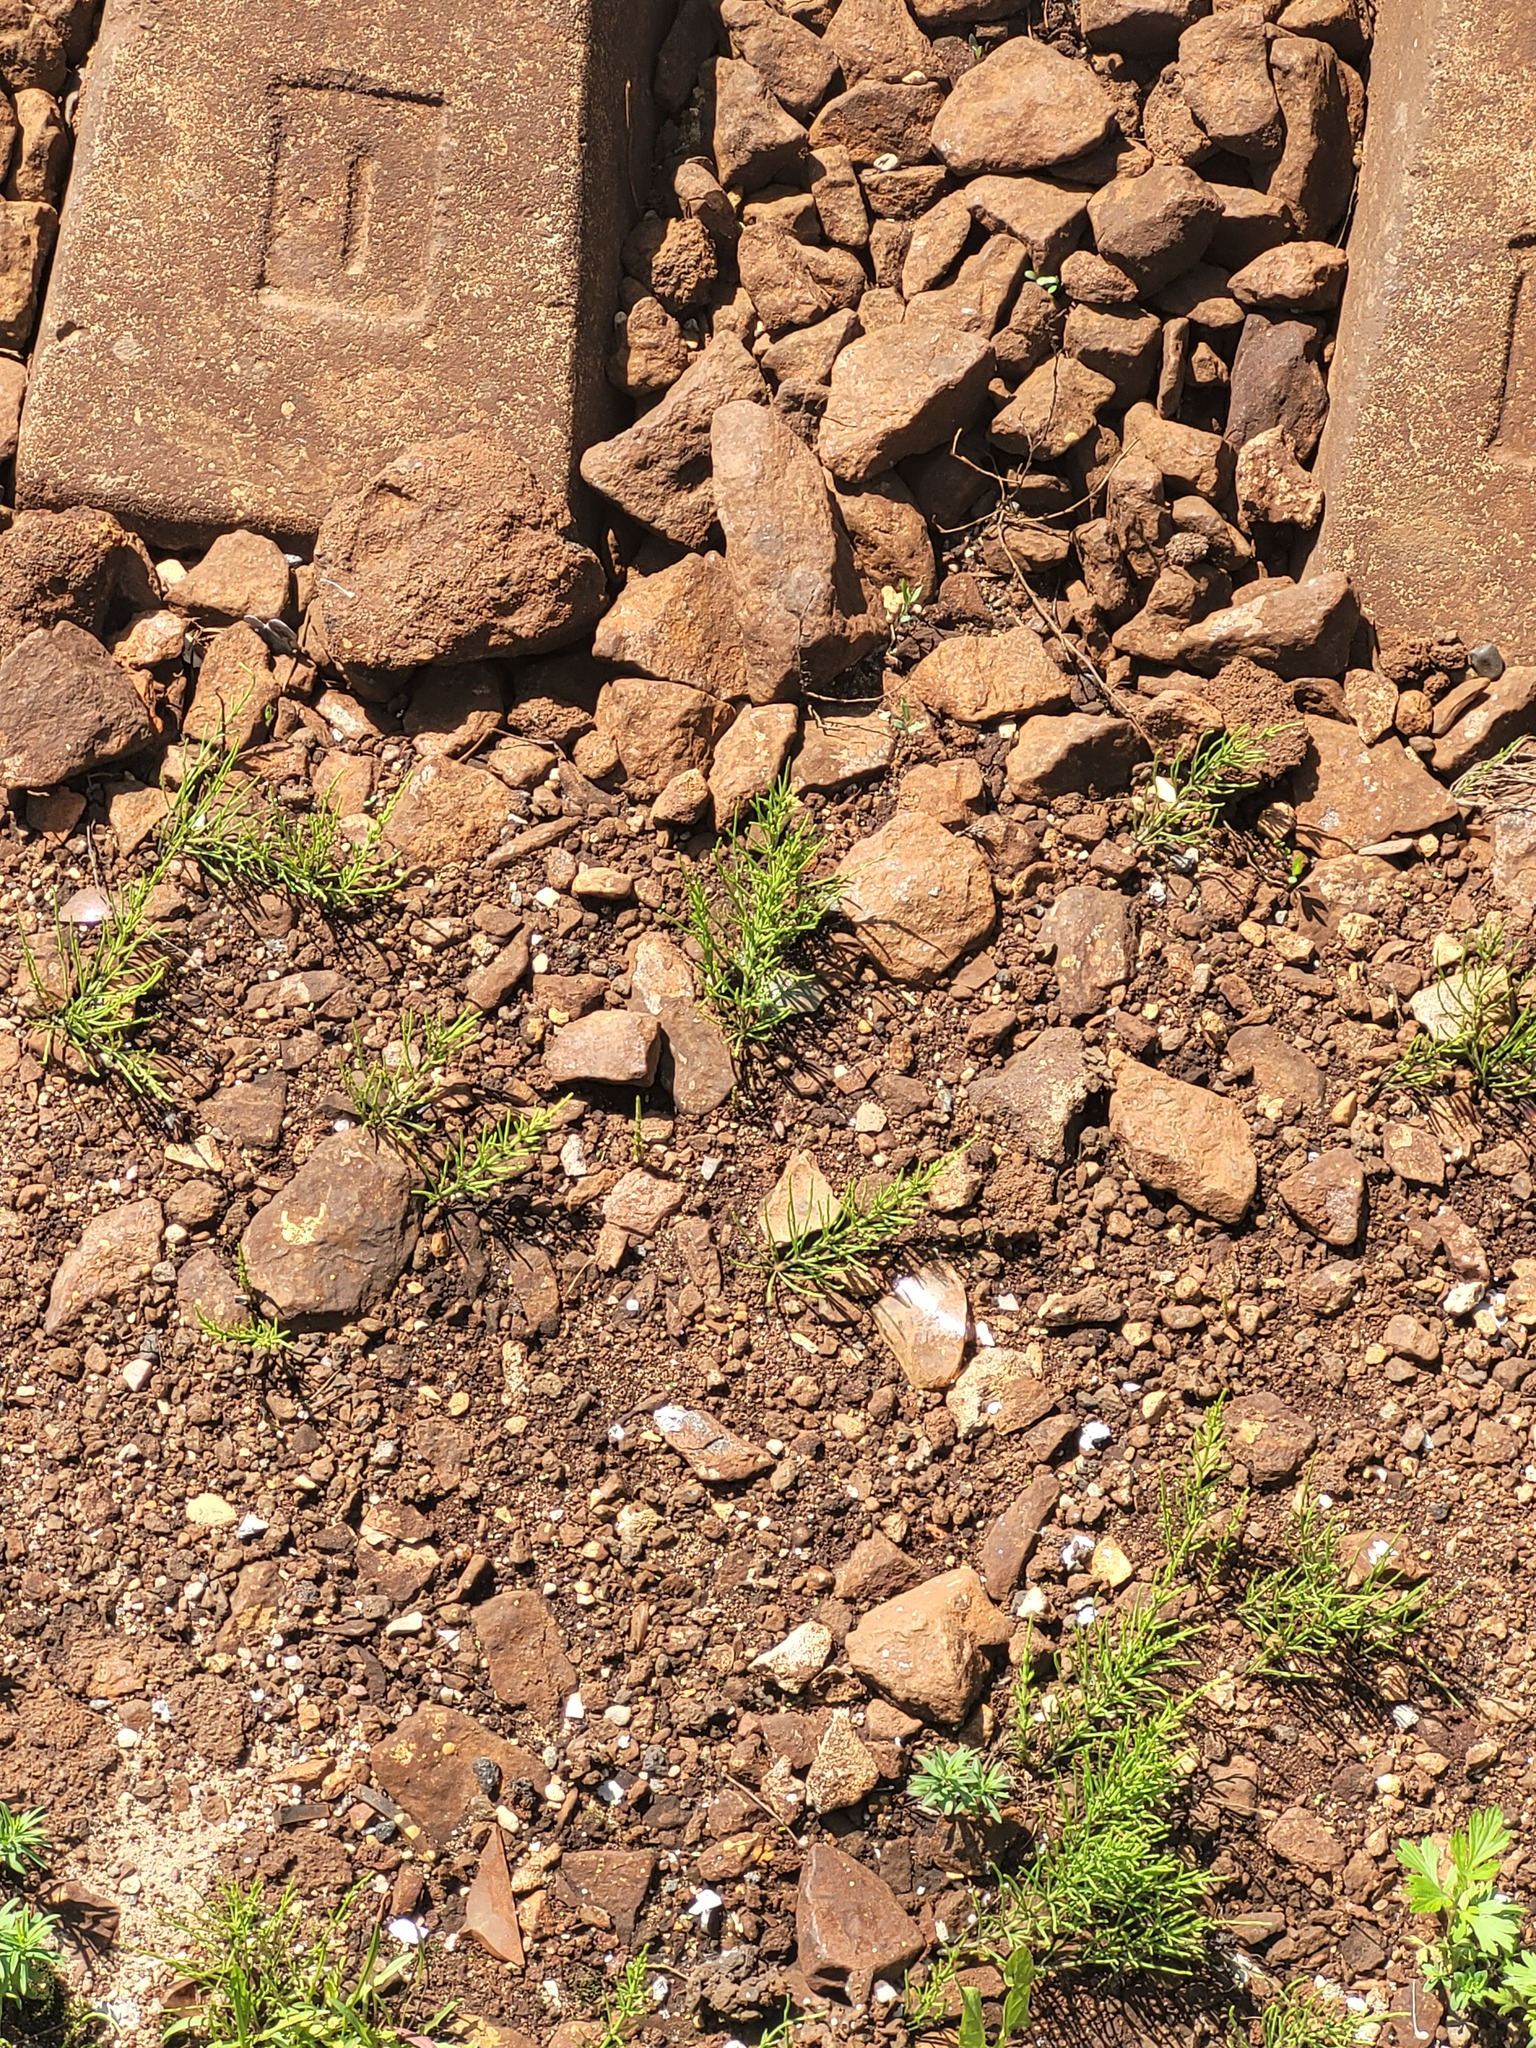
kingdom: Plantae
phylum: Tracheophyta
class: Polypodiopsida
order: Equisetales
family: Equisetaceae
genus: Equisetum
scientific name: Equisetum arvense
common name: Field horsetail
